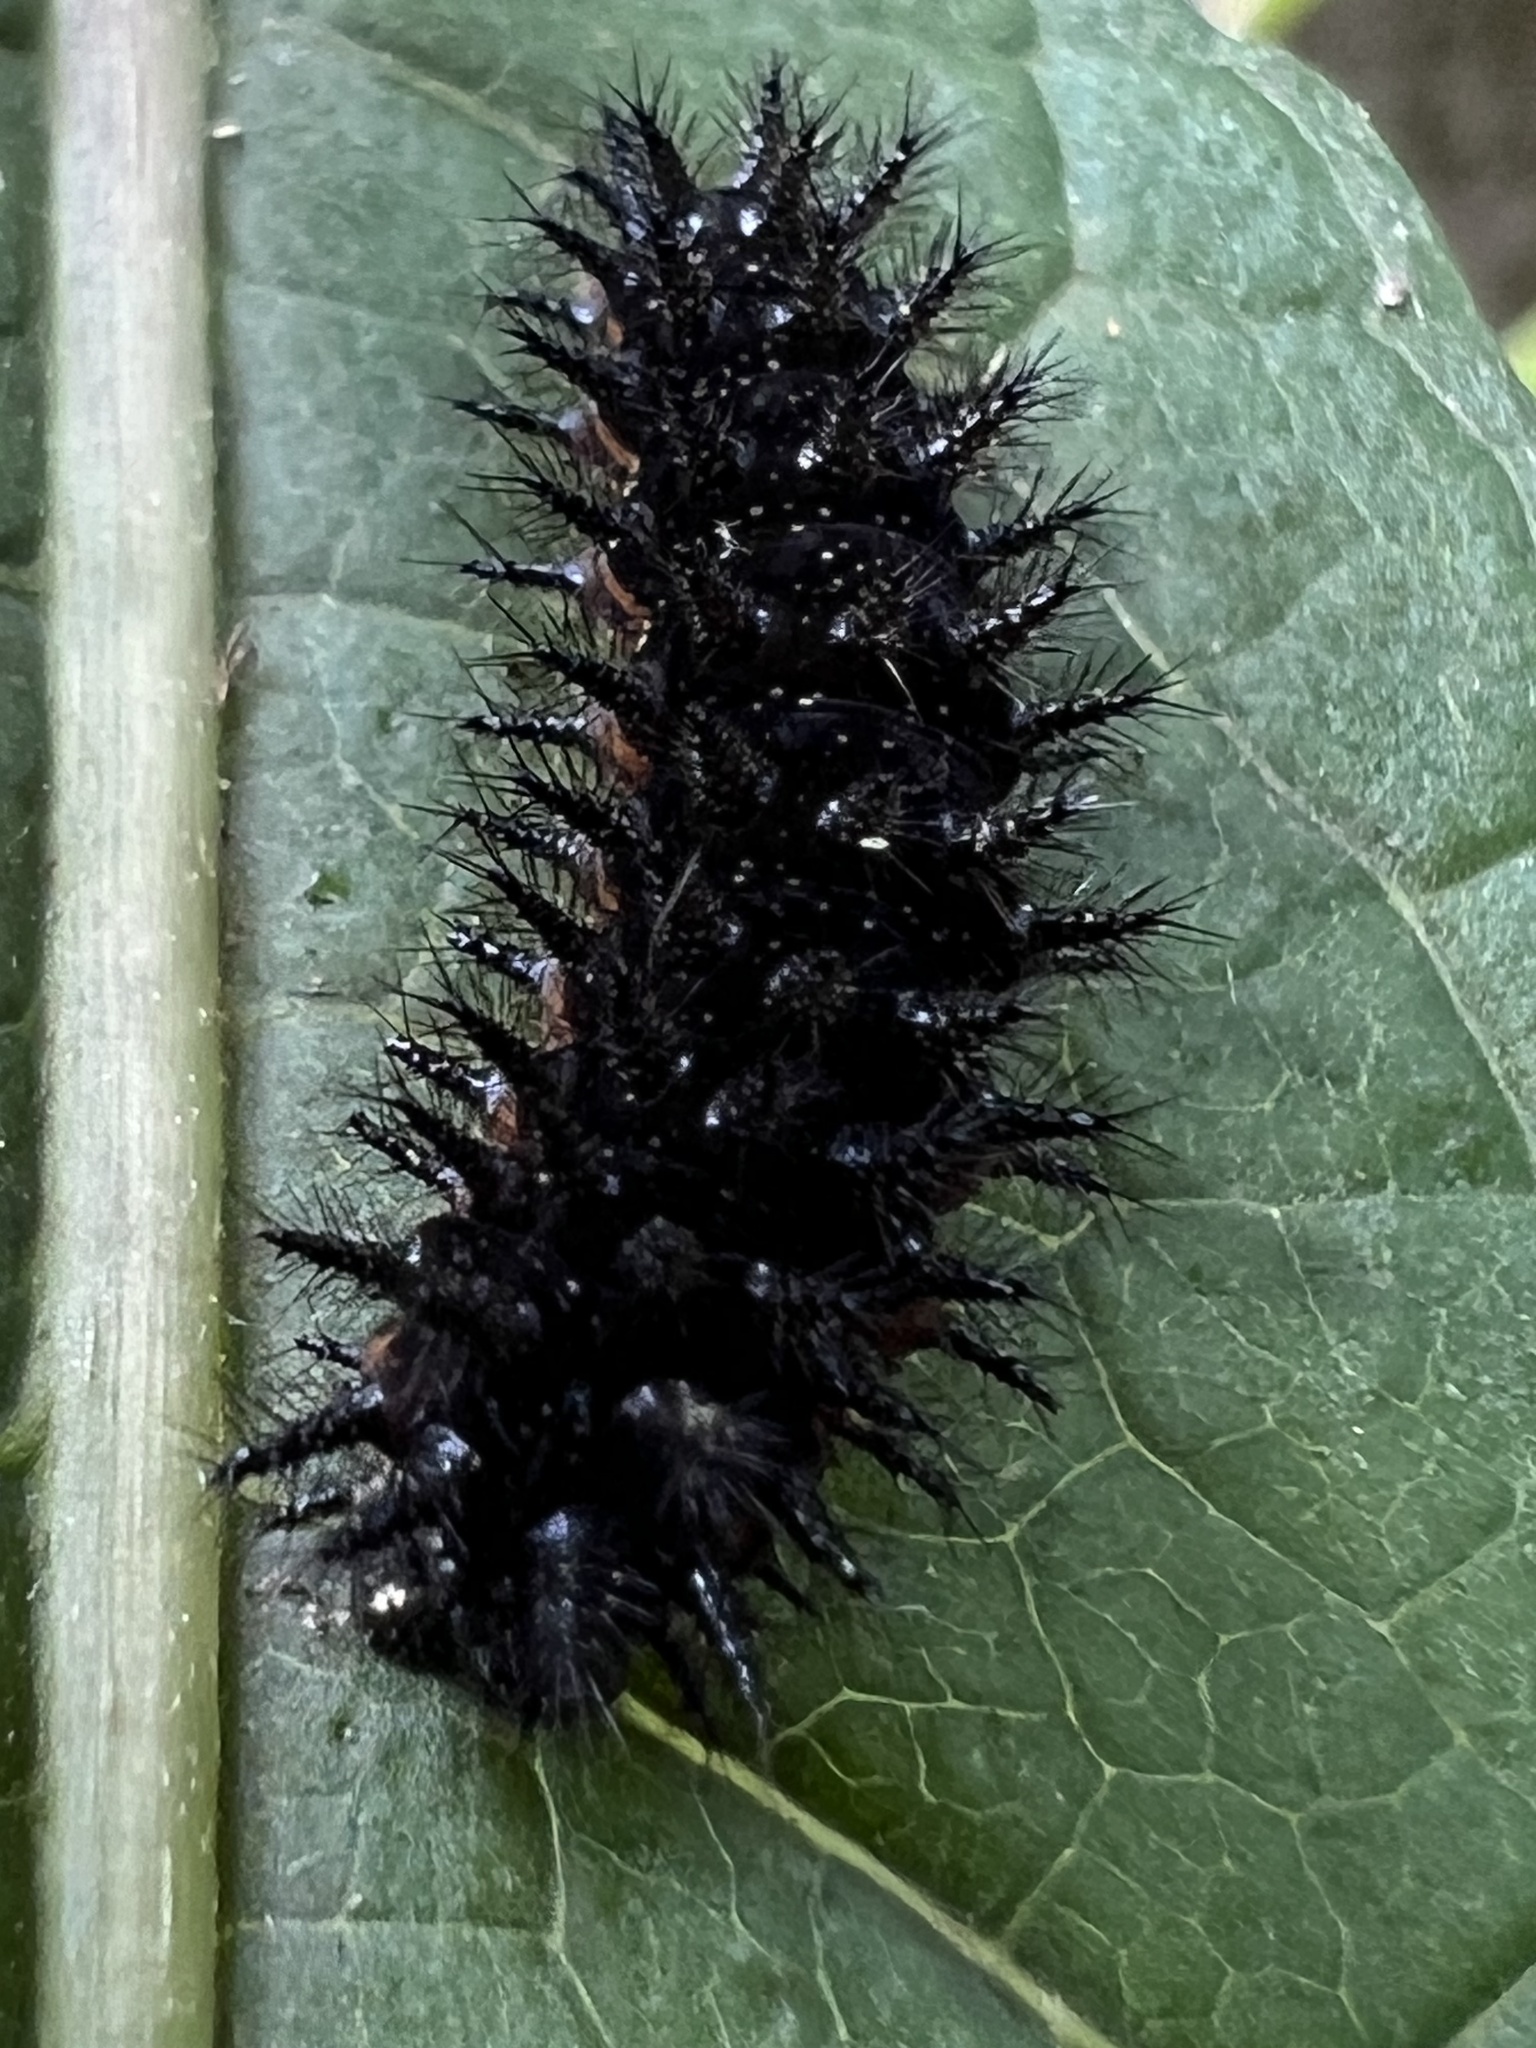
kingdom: Animalia
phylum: Arthropoda
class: Insecta
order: Lepidoptera
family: Nymphalidae
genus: Chlosyne
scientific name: Chlosyne nycteis
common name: Silvery checkerspot
